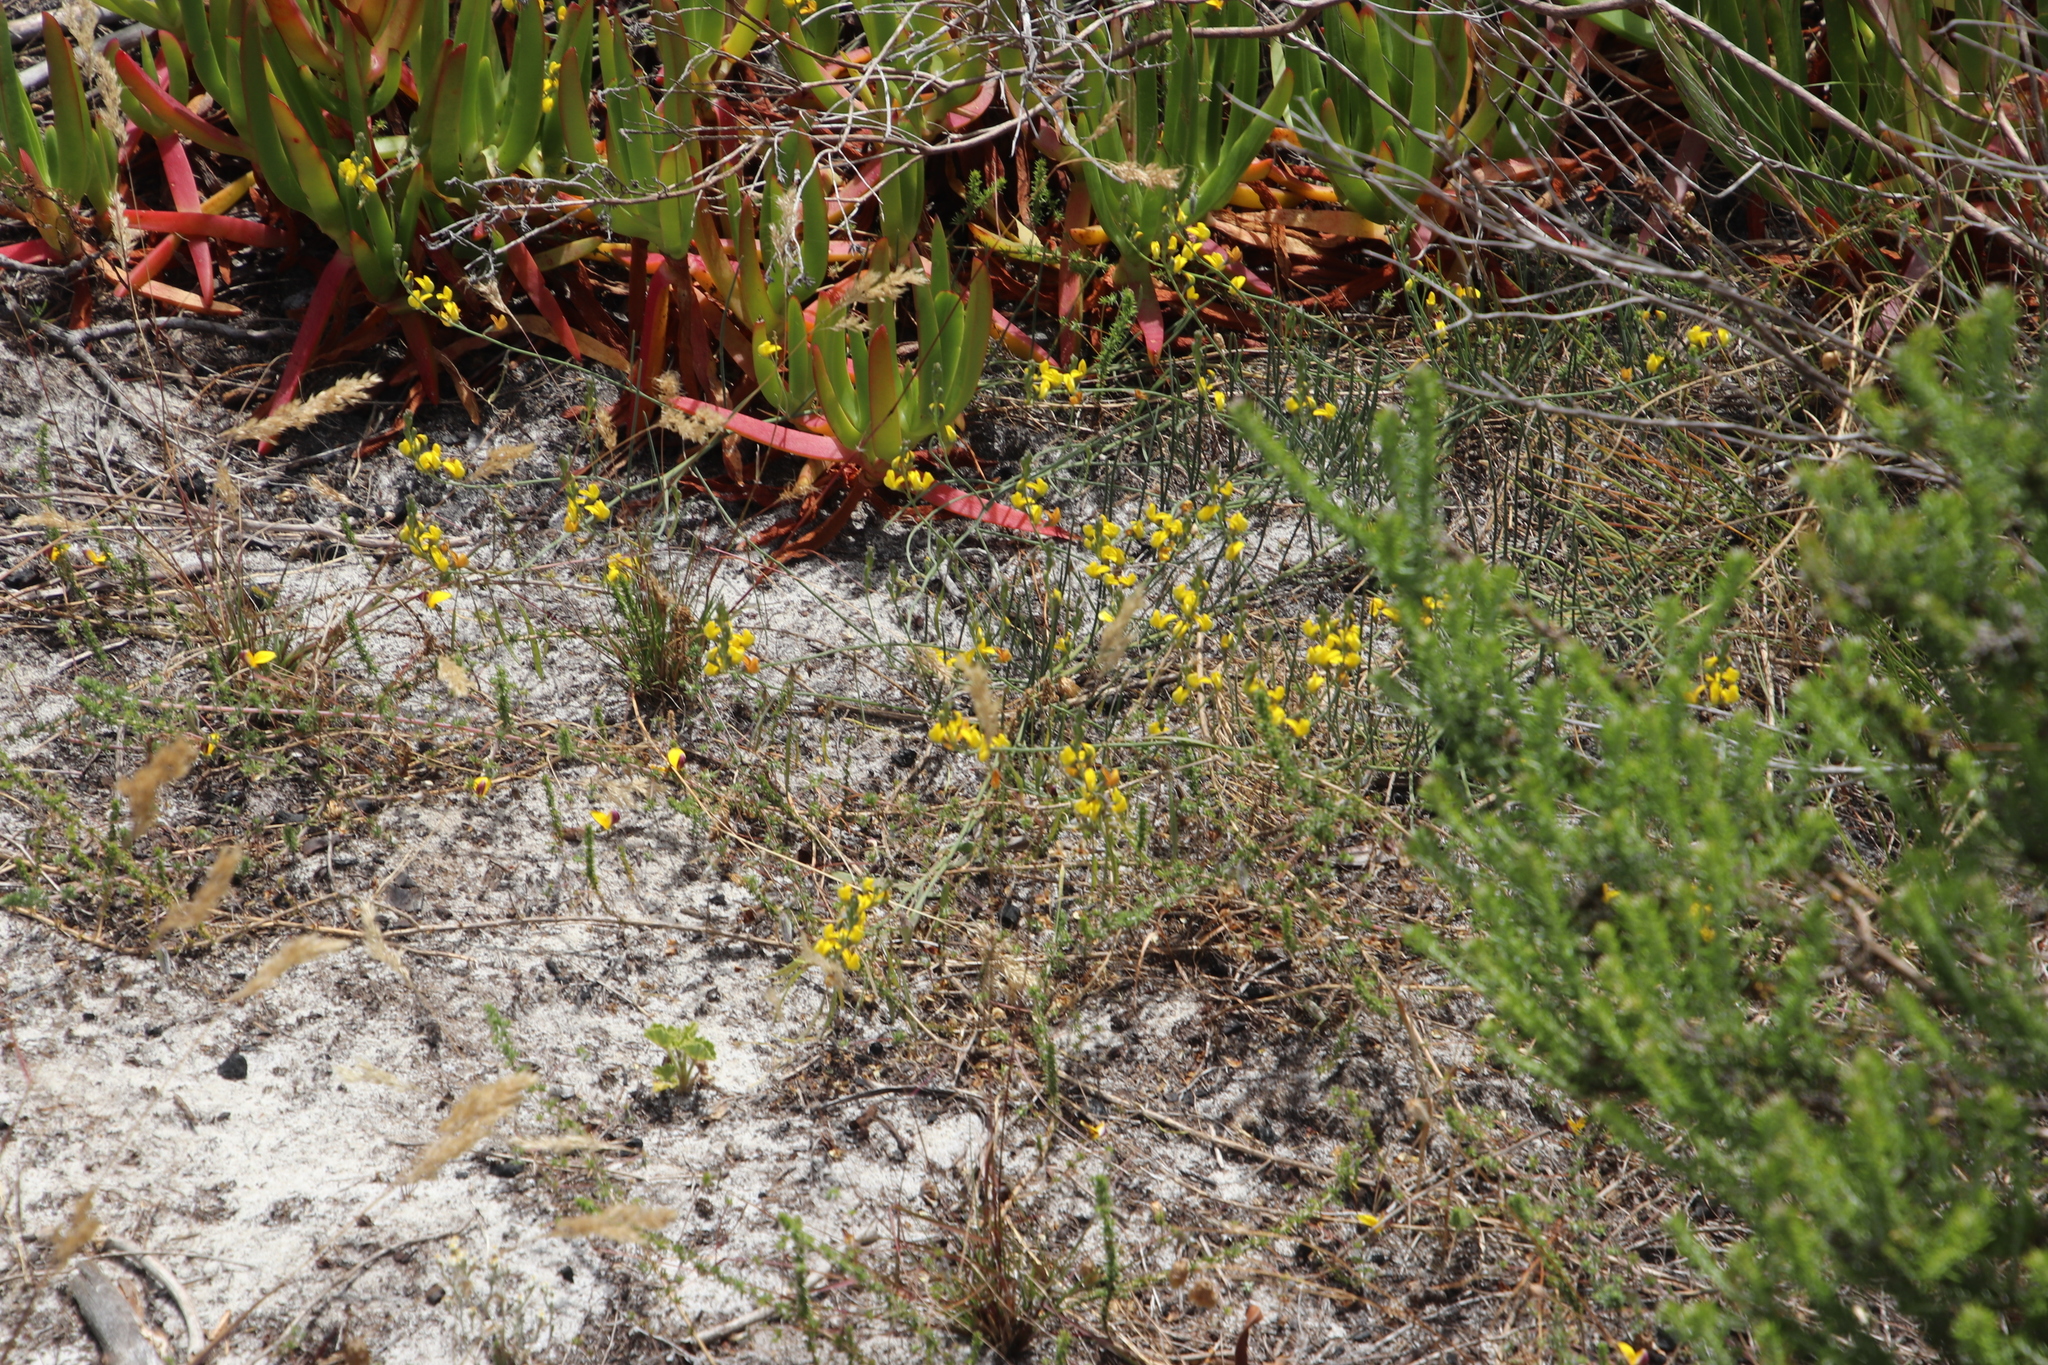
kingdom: Plantae
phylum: Tracheophyta
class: Magnoliopsida
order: Fabales
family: Fabaceae
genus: Lebeckia
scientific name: Lebeckia contaminata
